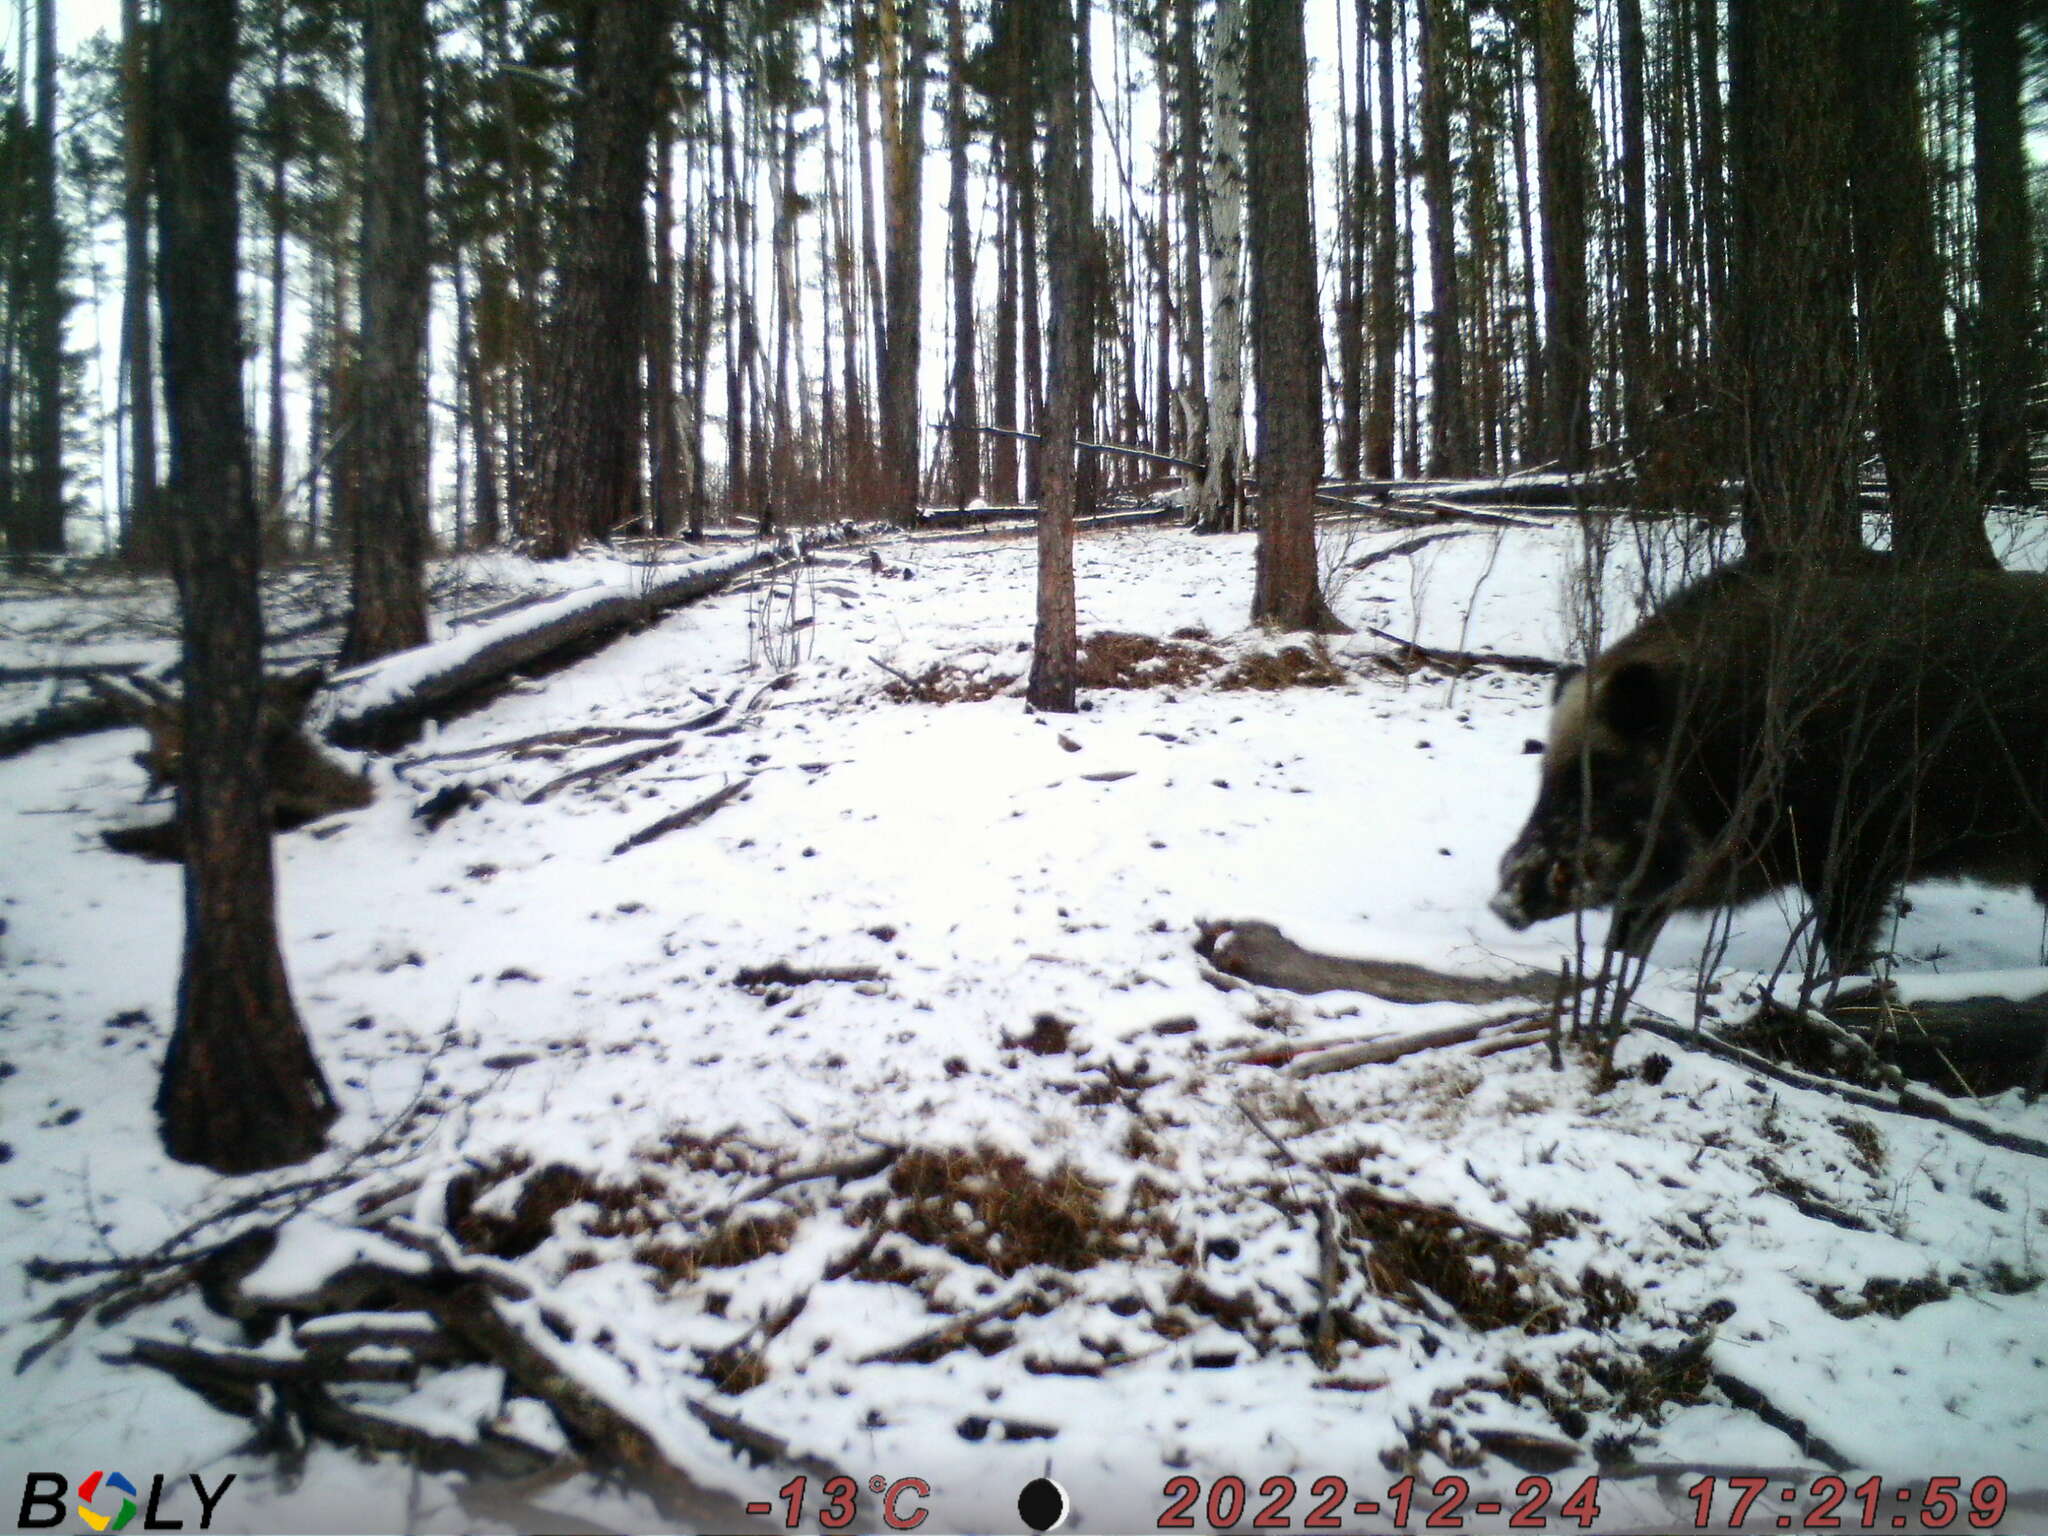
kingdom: Animalia
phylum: Chordata
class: Mammalia
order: Artiodactyla
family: Suidae
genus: Sus
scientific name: Sus scrofa
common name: Wild boar
